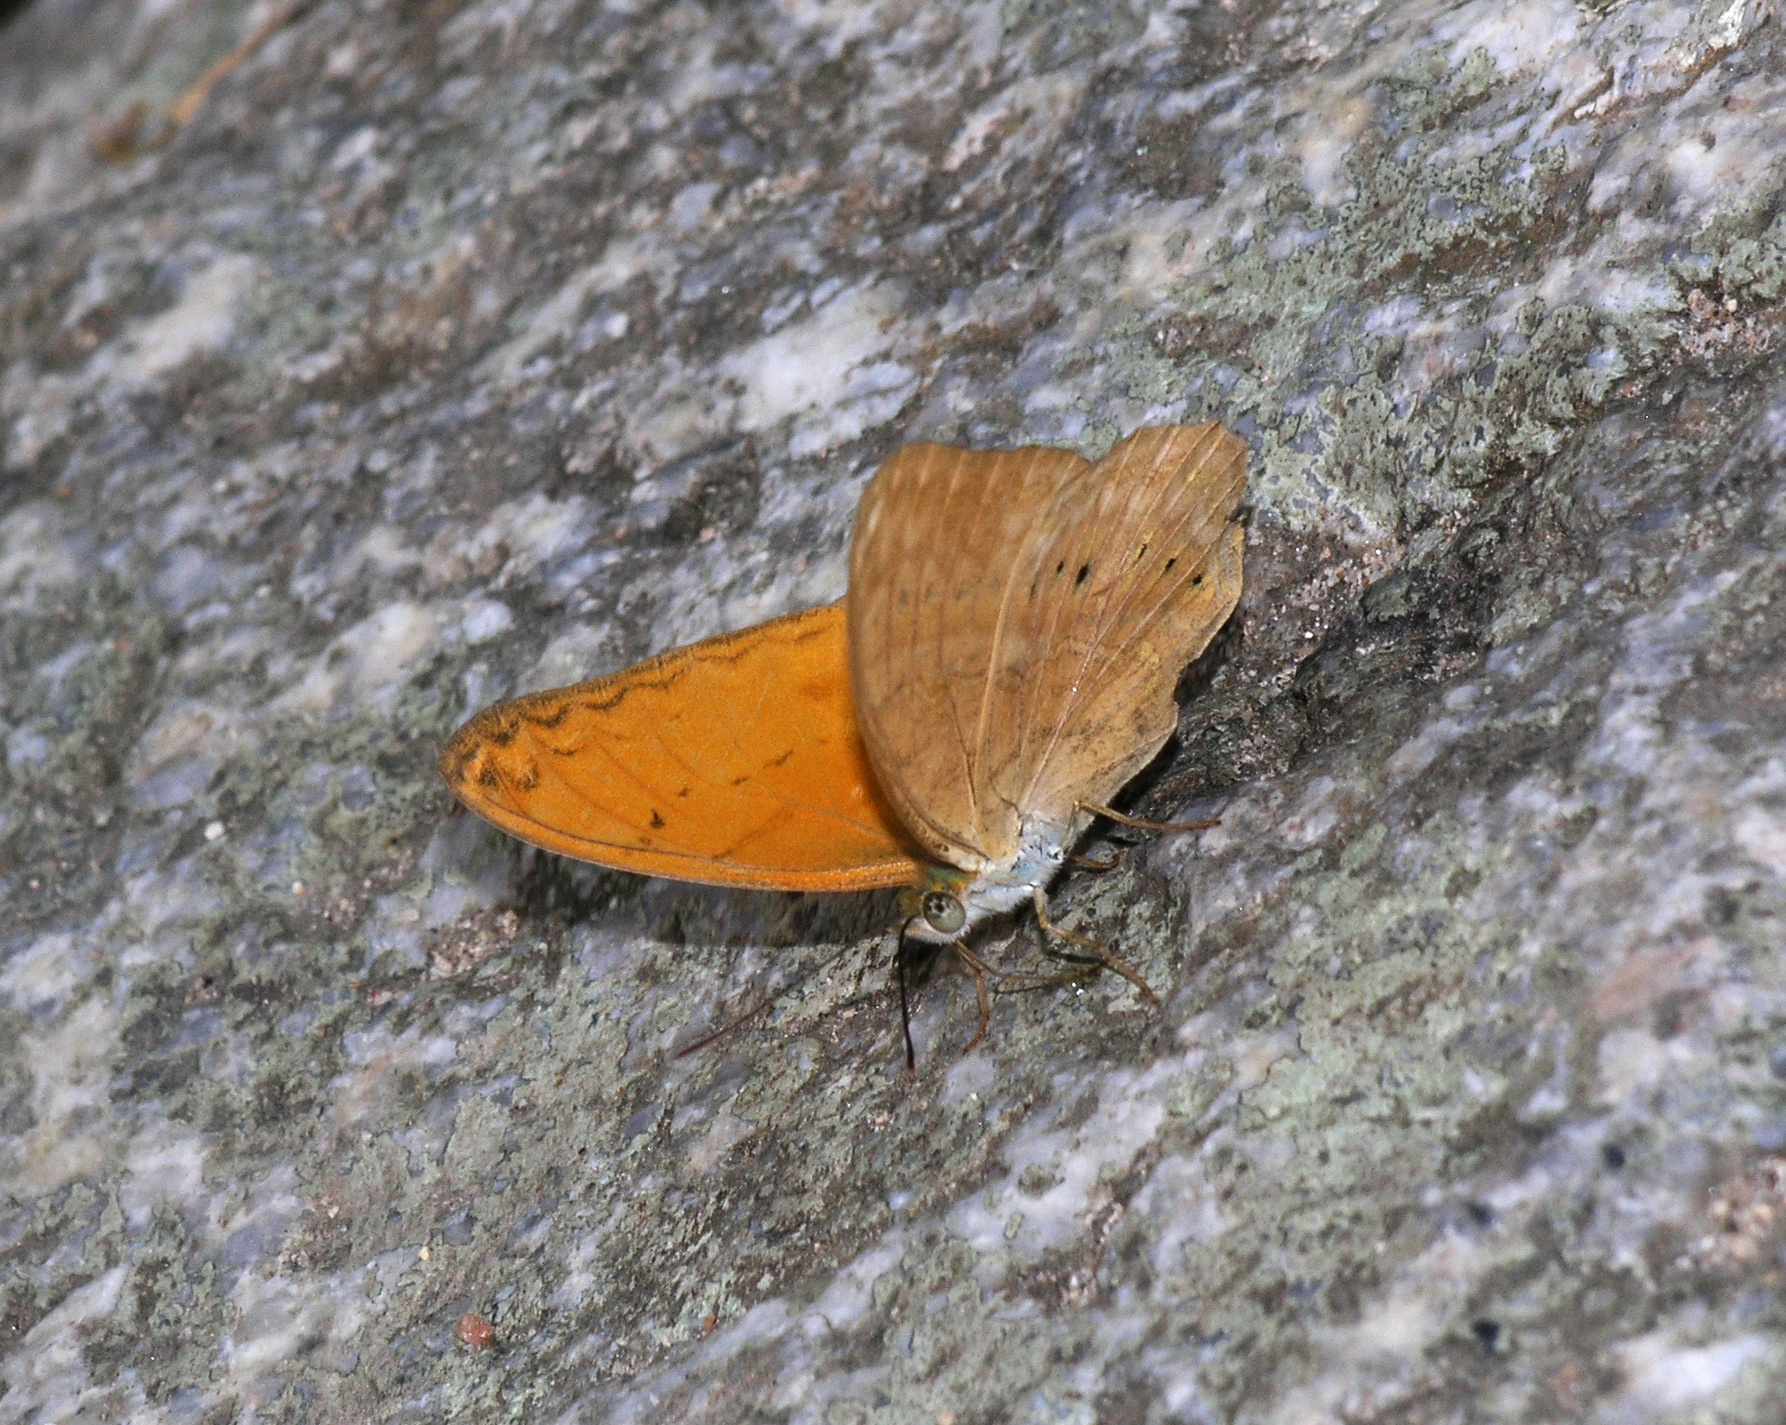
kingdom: Animalia
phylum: Arthropoda
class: Insecta
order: Lepidoptera
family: Nymphalidae
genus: Cirrochroa
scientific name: Cirrochroa tyche
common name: Common yeoman
